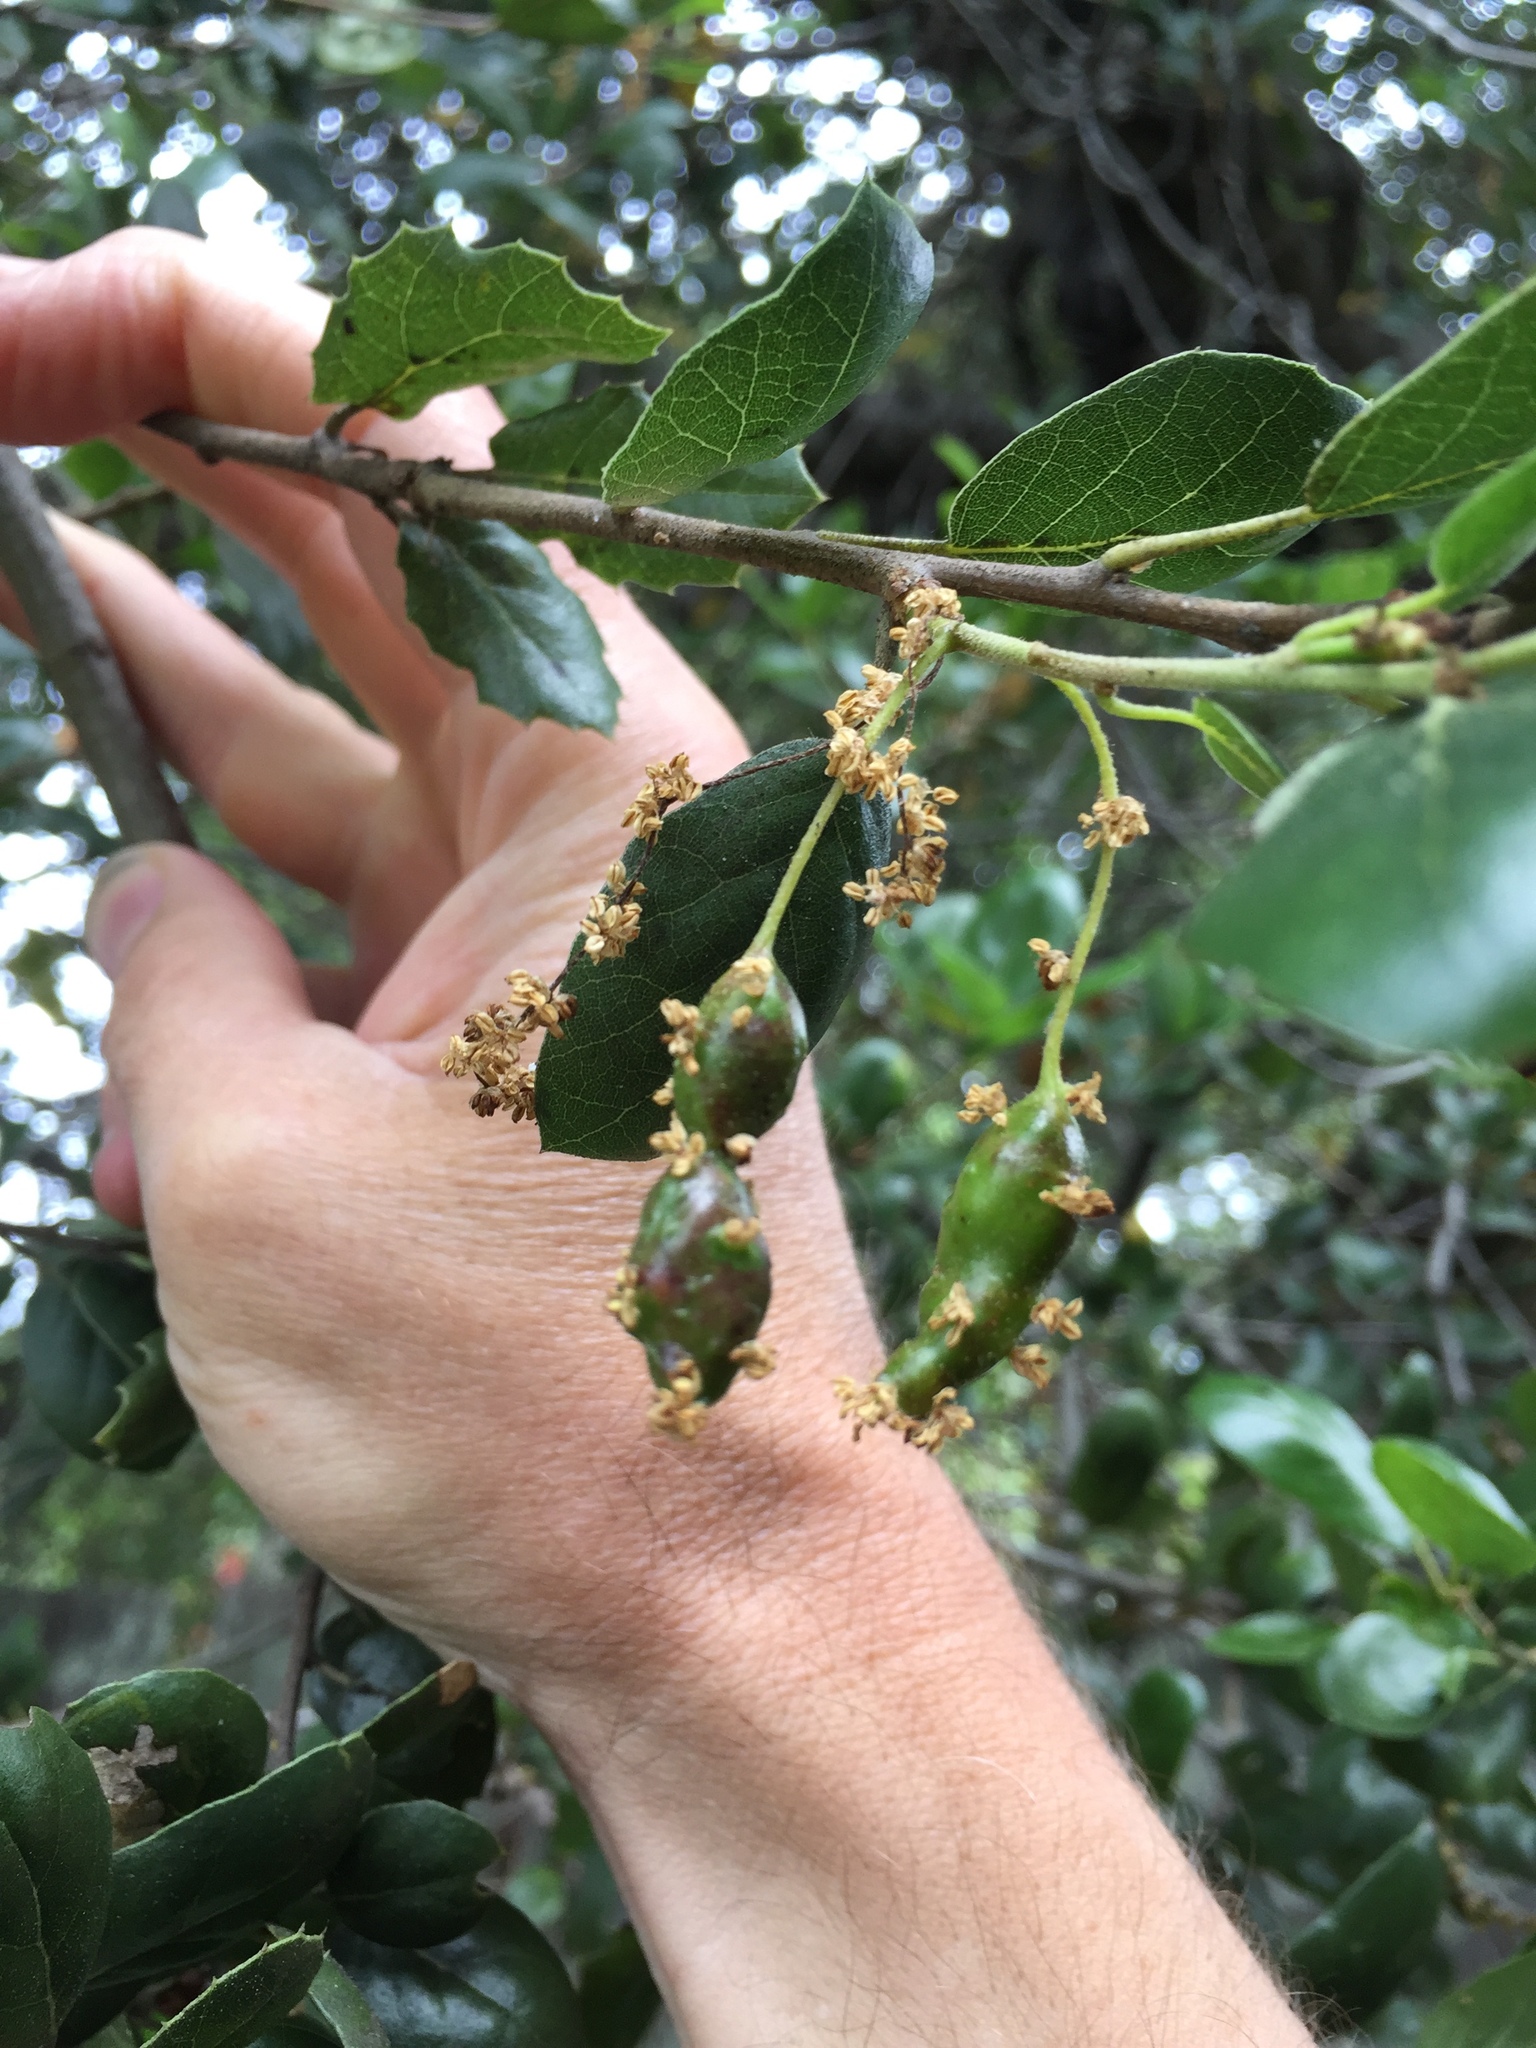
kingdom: Animalia
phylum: Arthropoda
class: Insecta
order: Hymenoptera
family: Cynipidae
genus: Callirhytis
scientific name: Callirhytis
